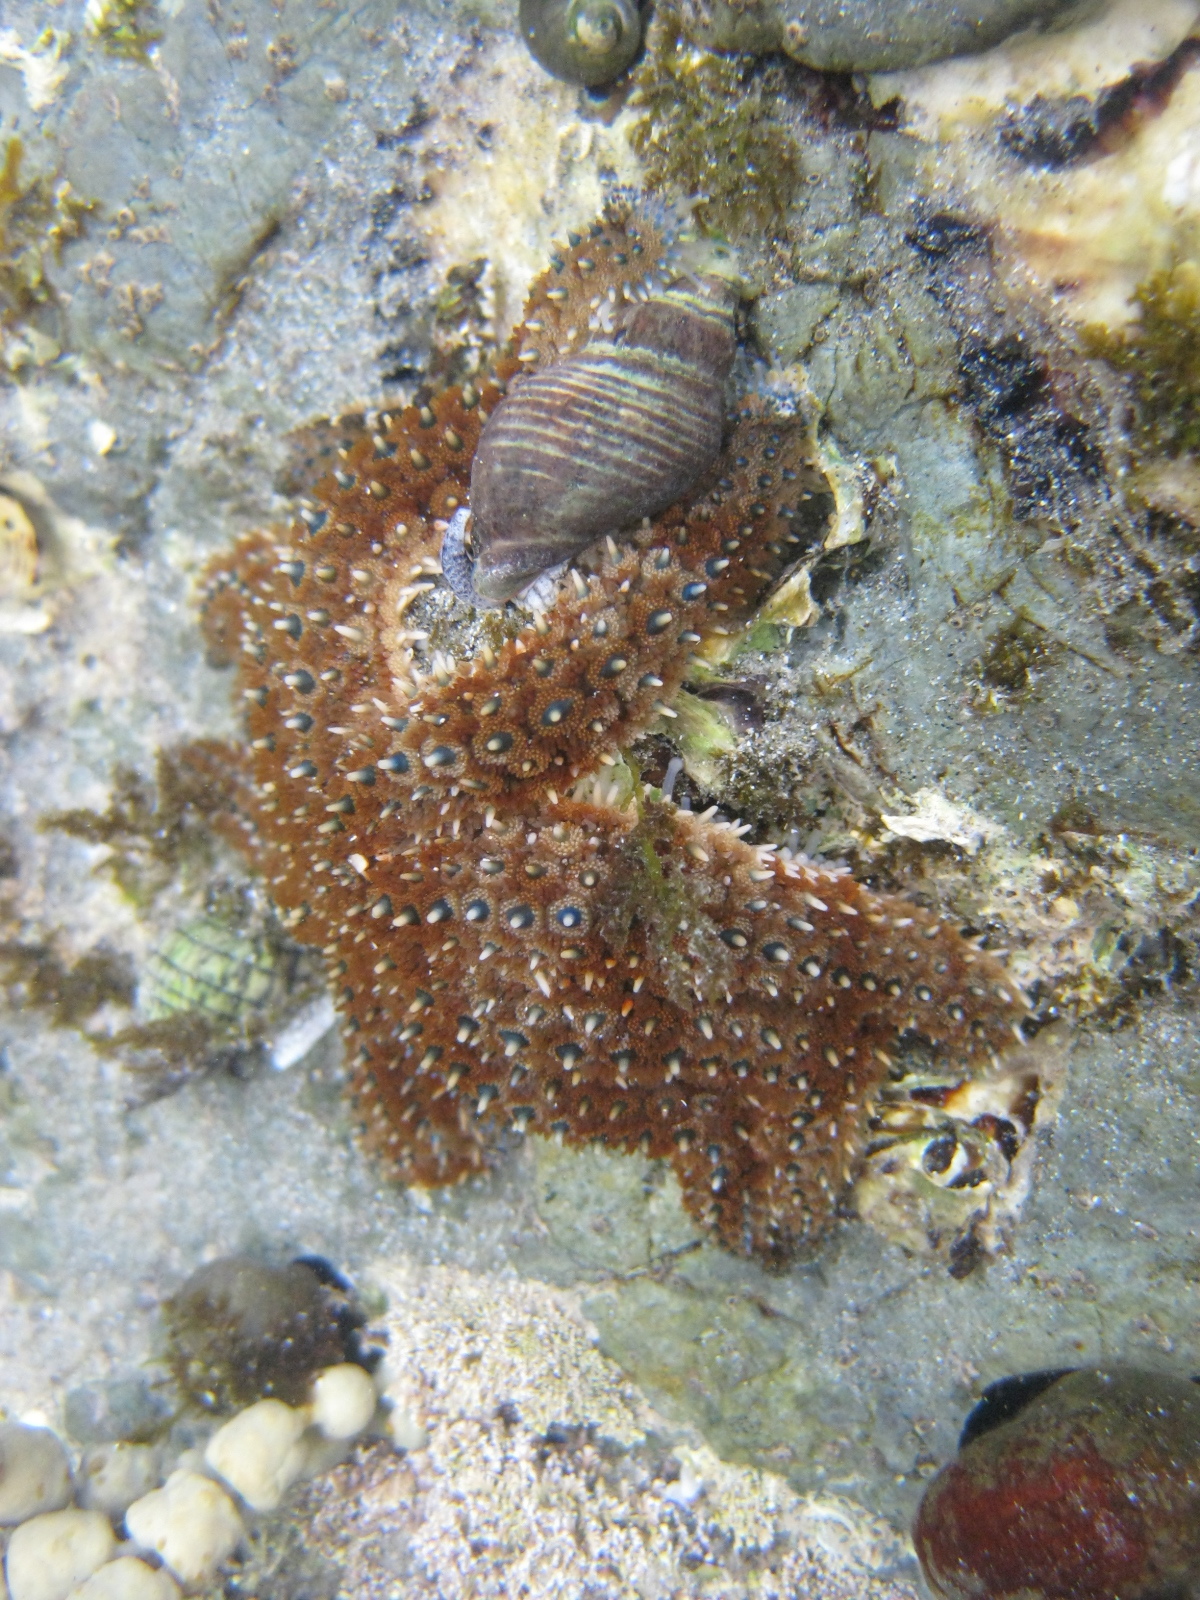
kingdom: Animalia
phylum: Echinodermata
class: Asteroidea
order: Forcipulatida
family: Asteriidae
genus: Coscinasterias
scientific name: Coscinasterias muricata
